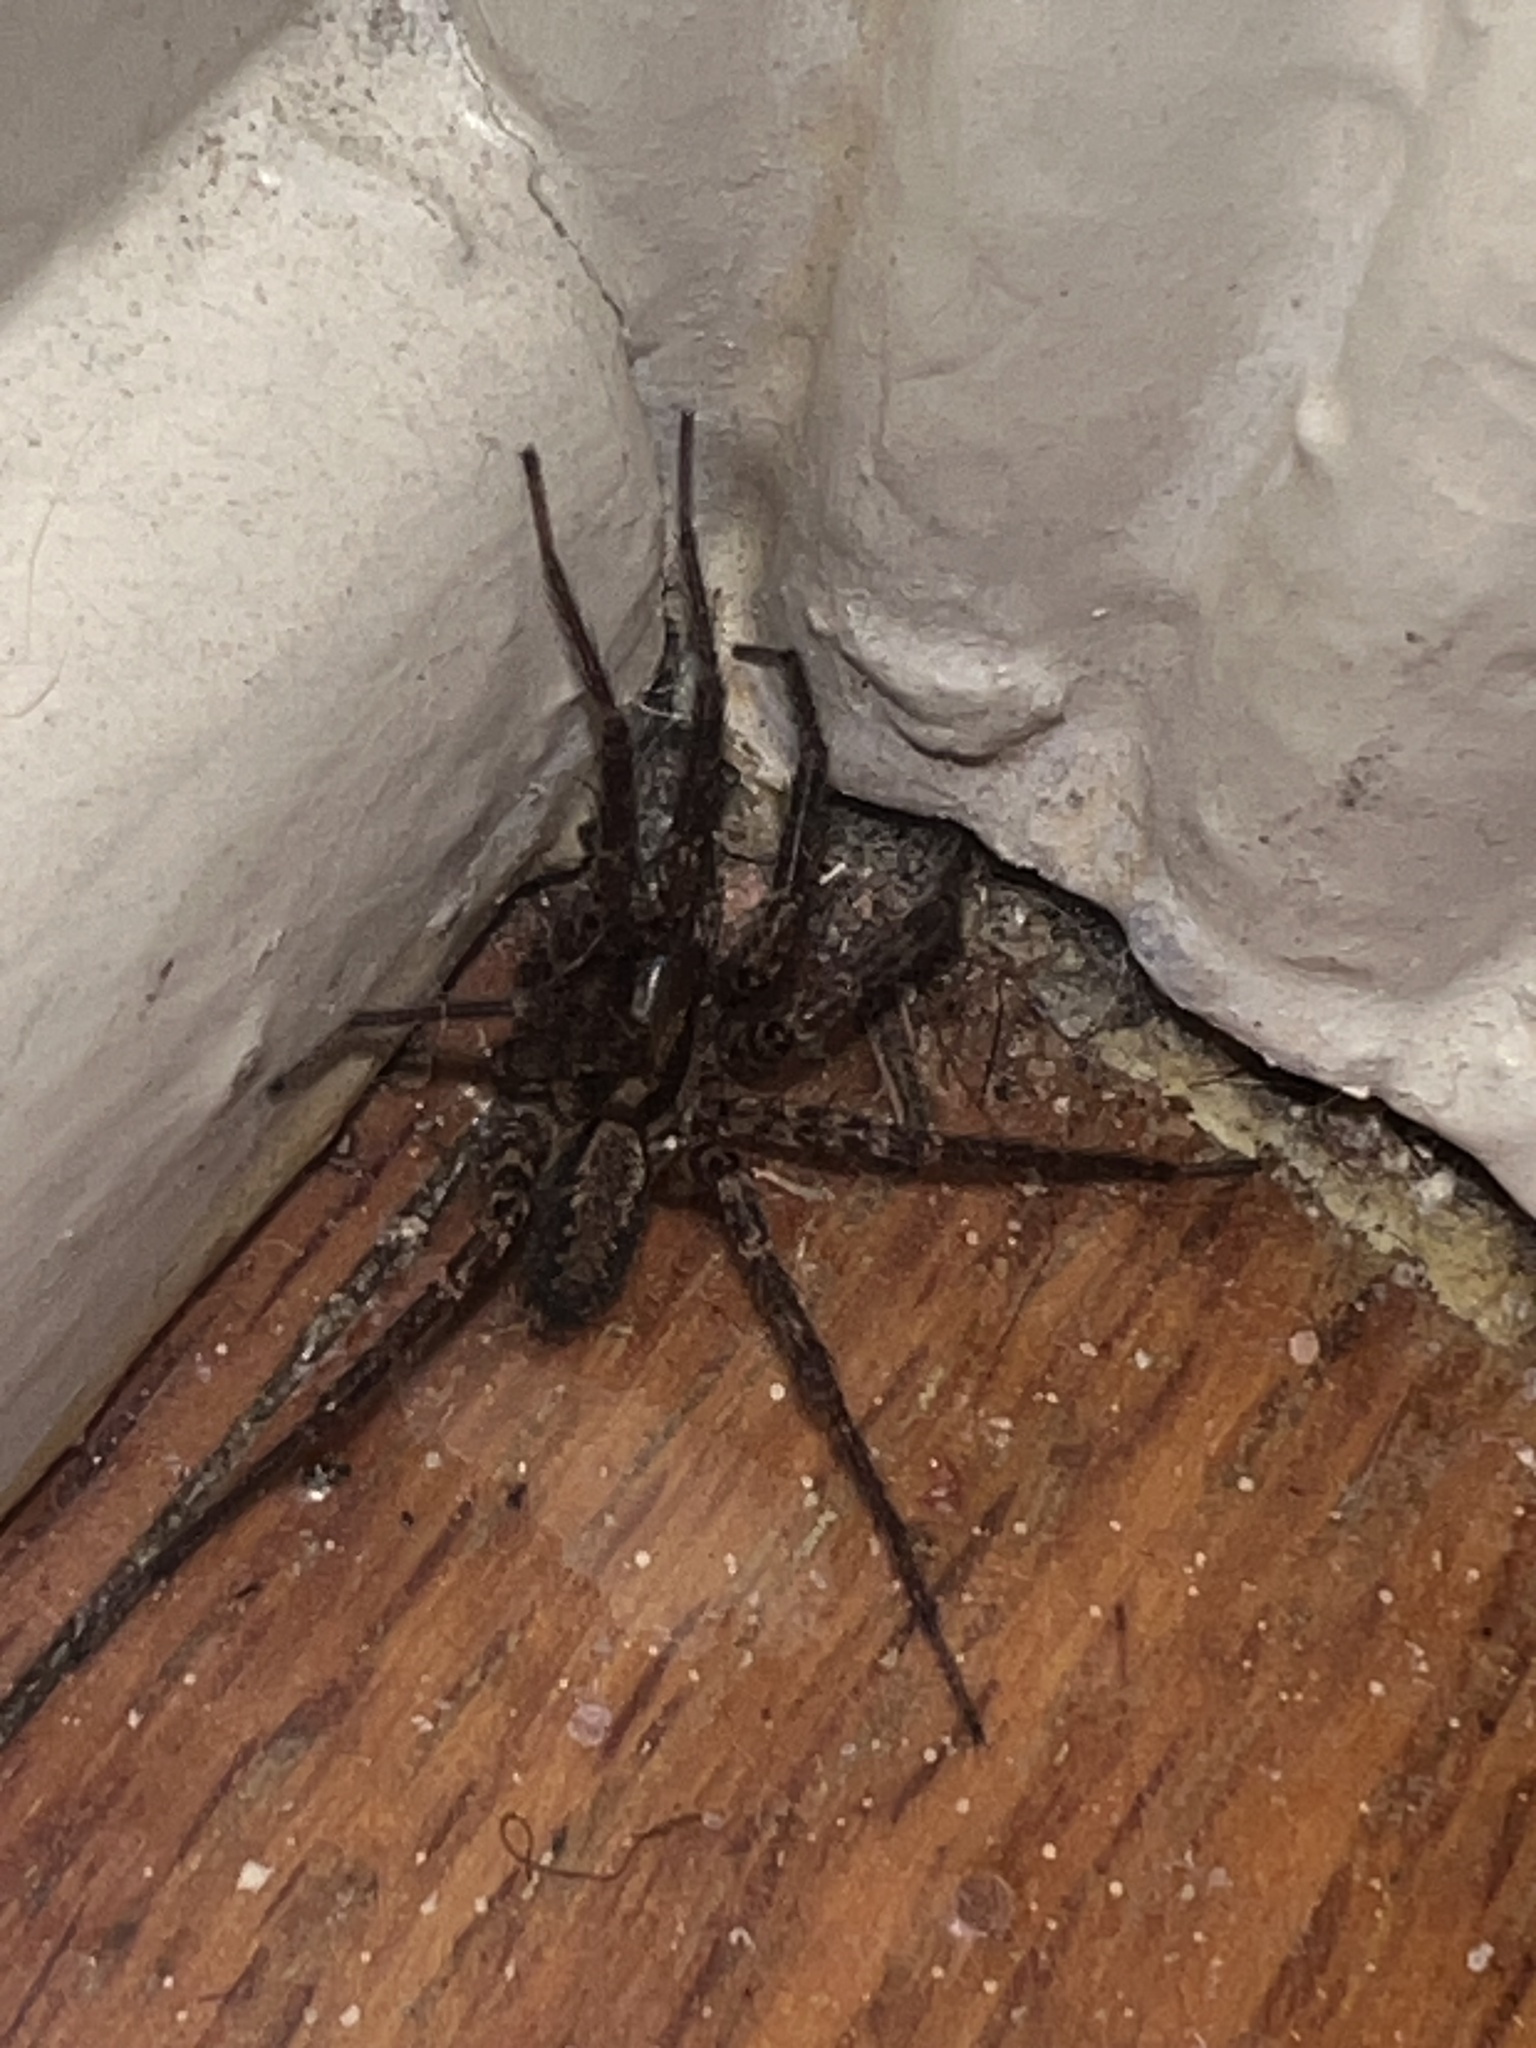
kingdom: Animalia
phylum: Arthropoda
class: Arachnida
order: Araneae
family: Agelenidae
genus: Hololena
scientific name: Hololena
